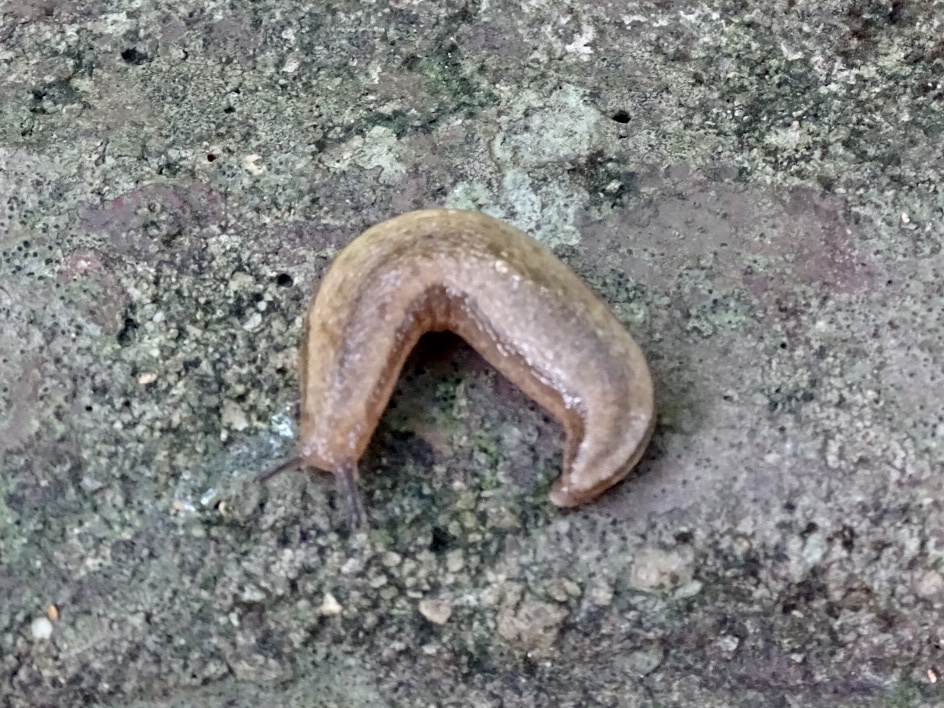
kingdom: Animalia
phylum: Mollusca
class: Gastropoda
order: Stylommatophora
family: Philomycidae
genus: Meghimatium
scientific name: Meghimatium bilineatum
